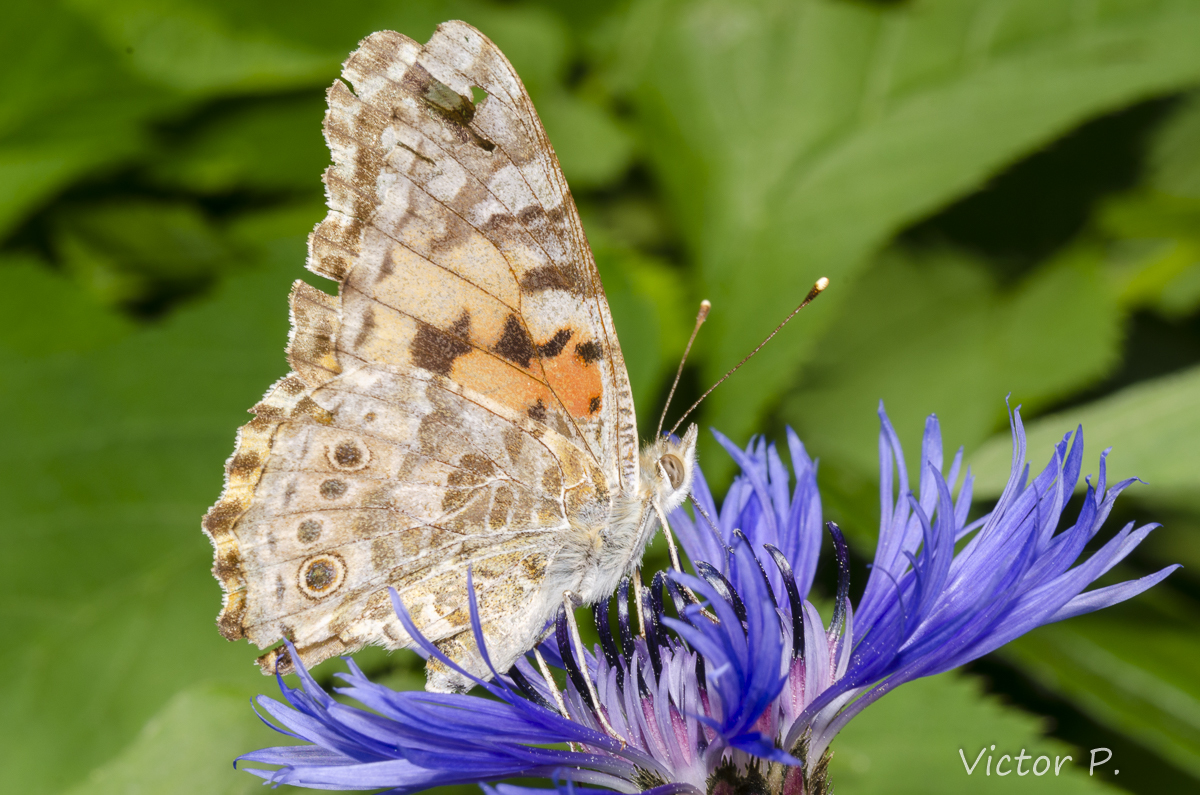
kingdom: Animalia
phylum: Arthropoda
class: Insecta
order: Lepidoptera
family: Nymphalidae
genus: Vanessa
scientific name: Vanessa cardui
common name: Painted lady
